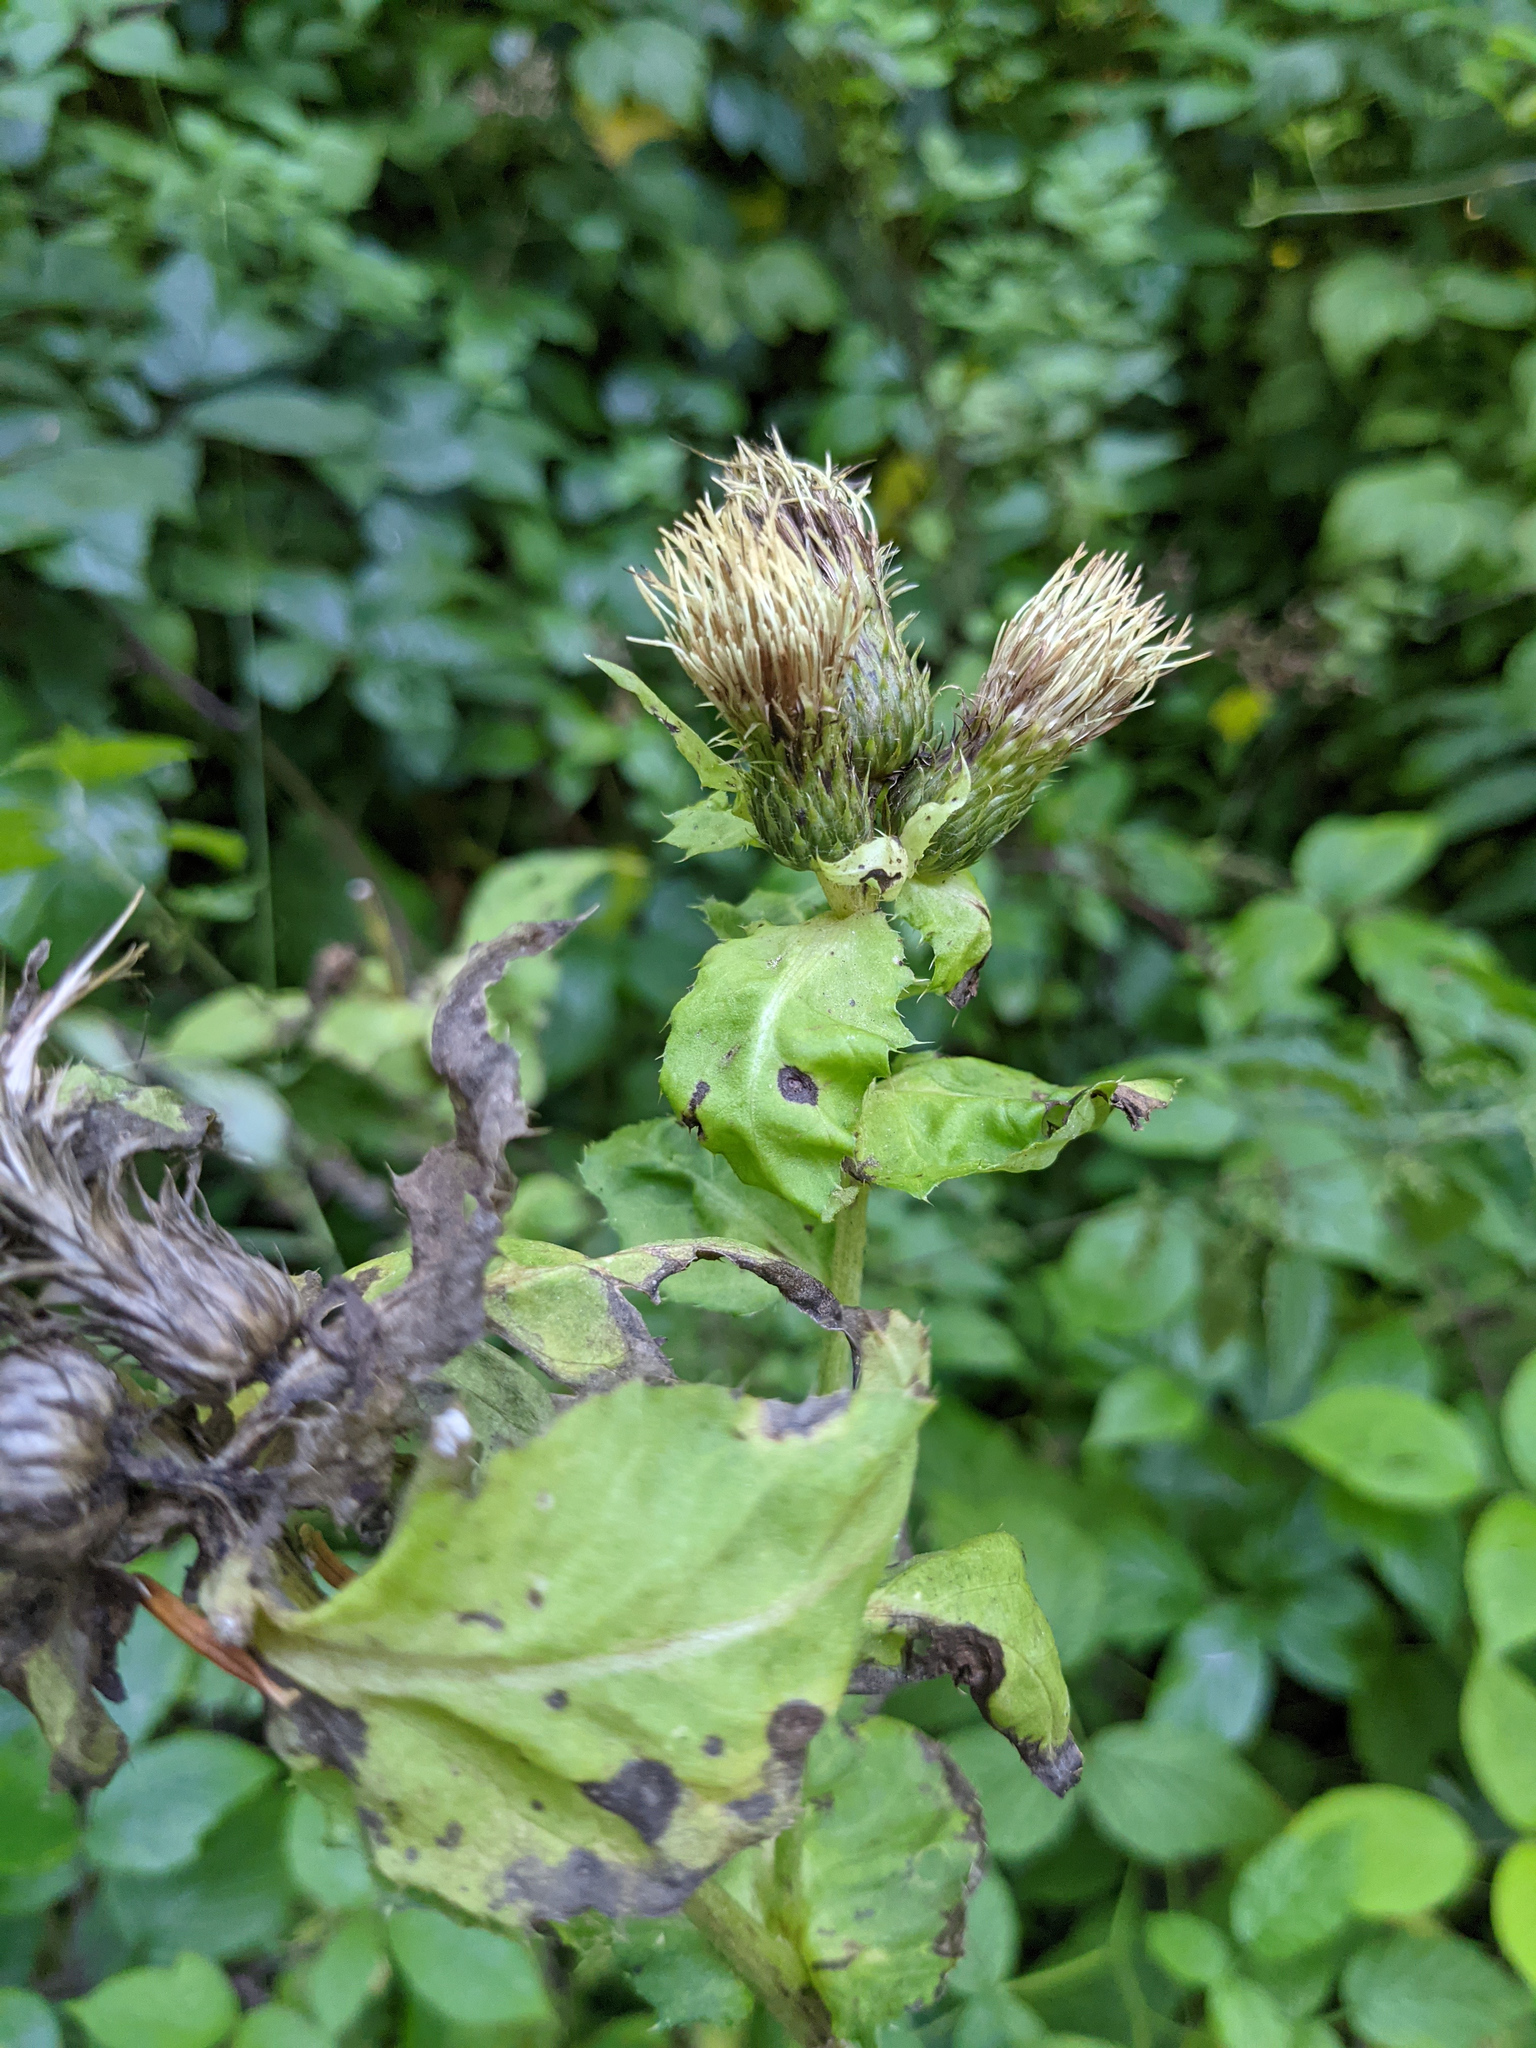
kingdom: Plantae
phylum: Tracheophyta
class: Magnoliopsida
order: Asterales
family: Asteraceae
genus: Cirsium
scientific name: Cirsium oleraceum
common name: Cabbage thistle
